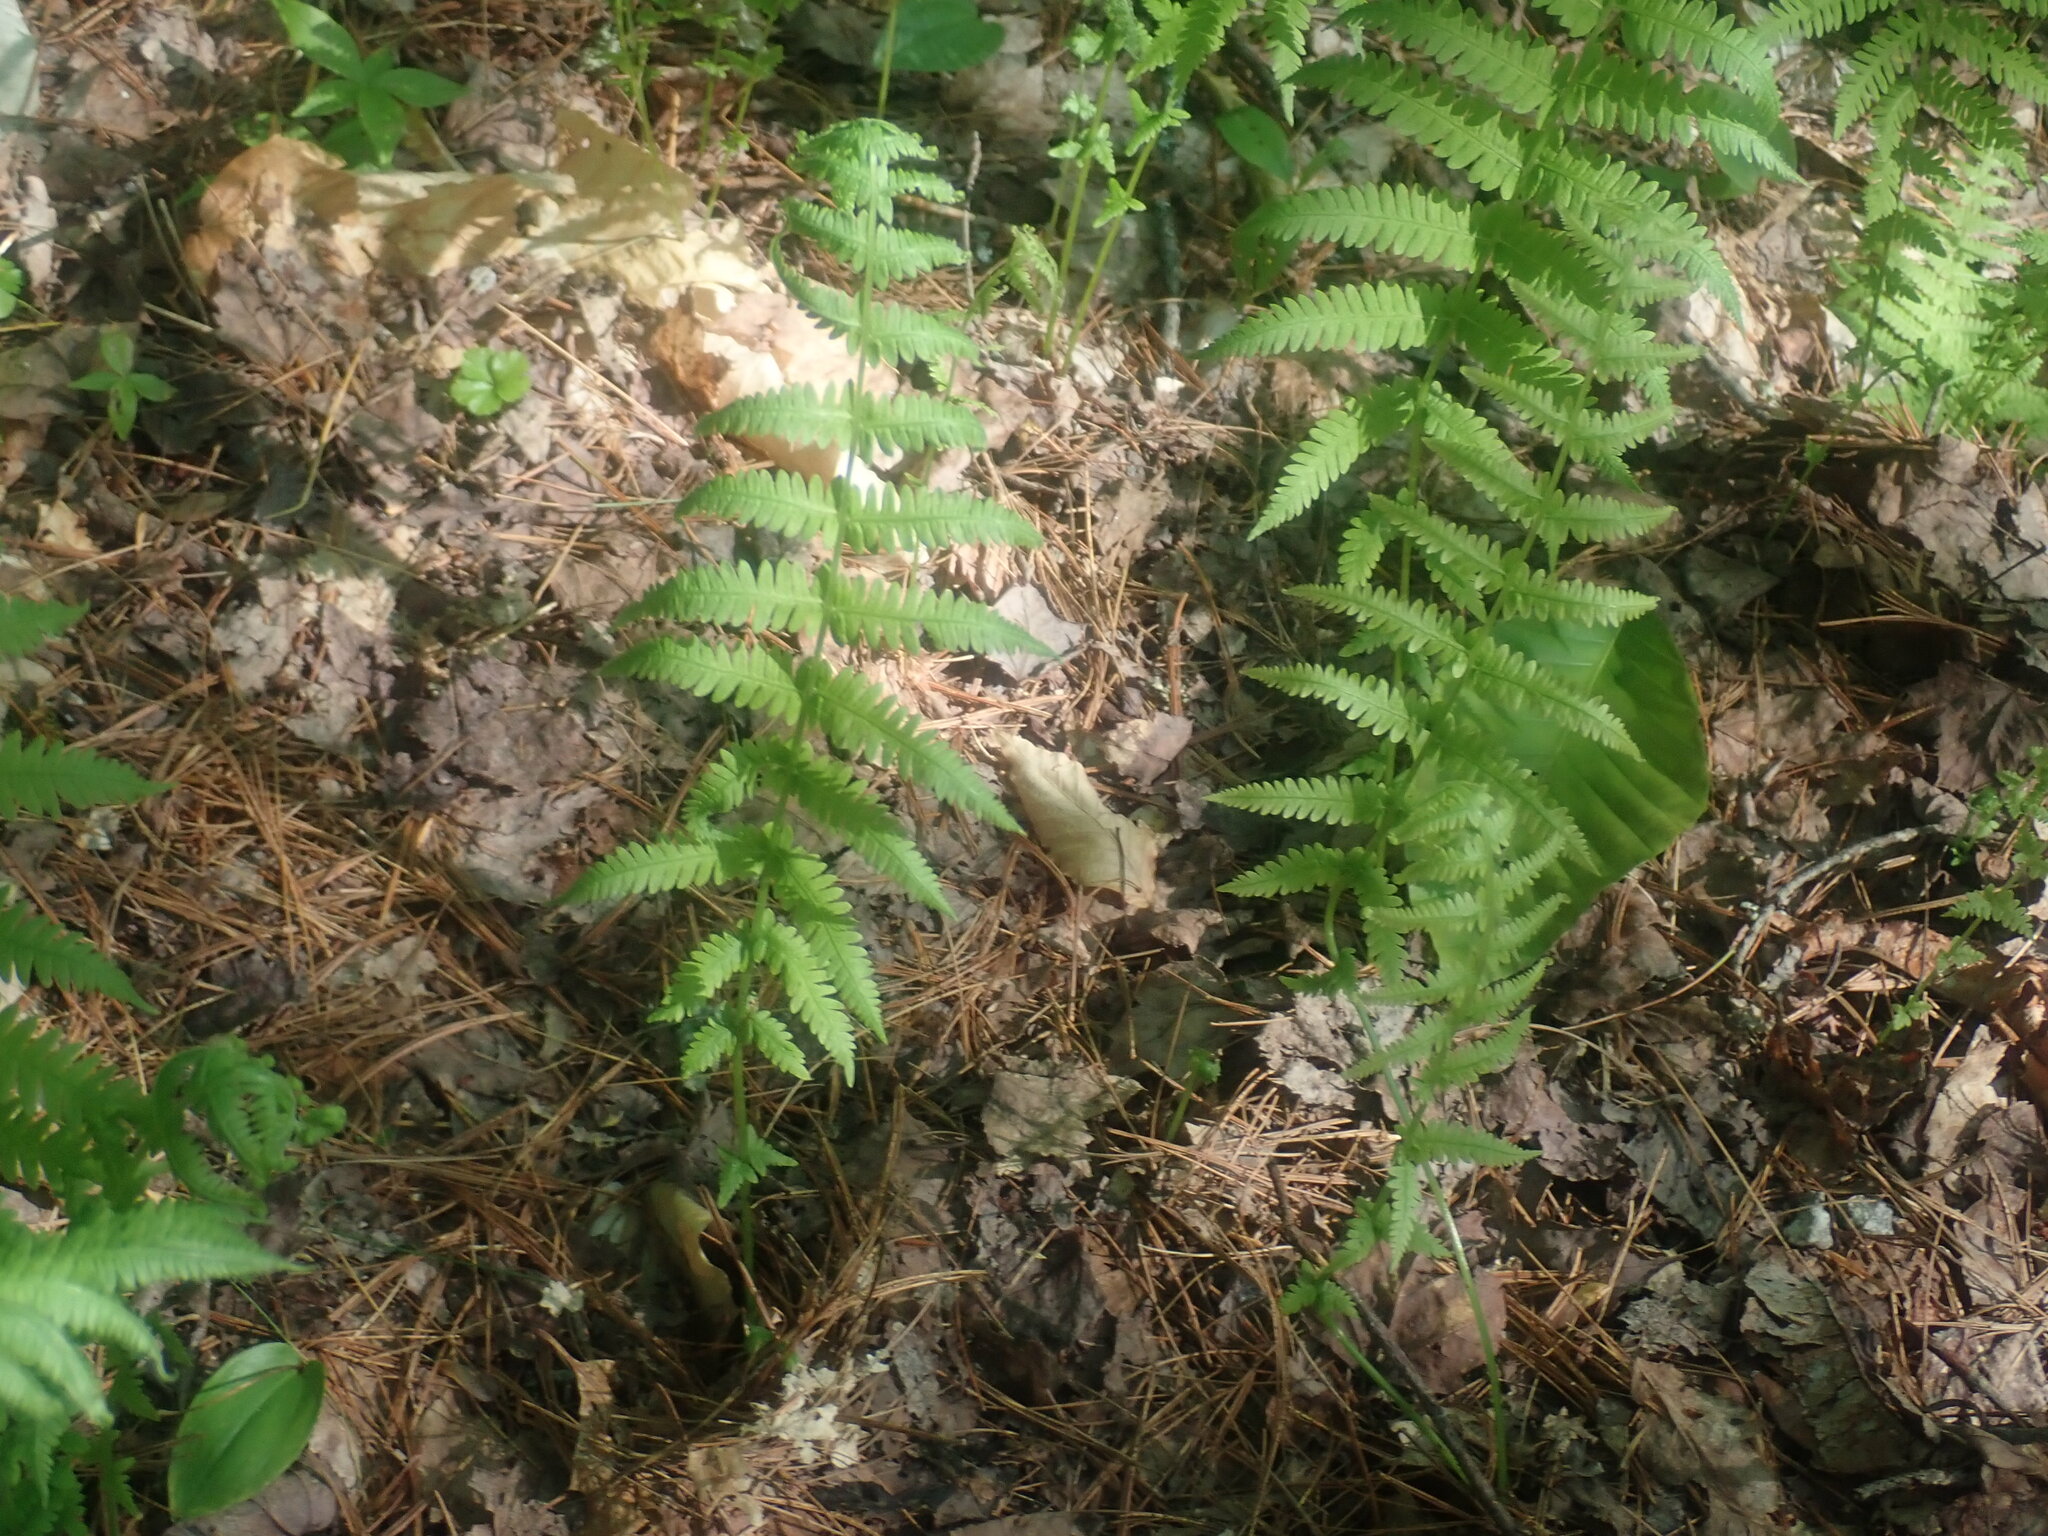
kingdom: Plantae
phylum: Tracheophyta
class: Polypodiopsida
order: Polypodiales
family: Thelypteridaceae
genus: Amauropelta
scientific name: Amauropelta noveboracensis
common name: New york fern
